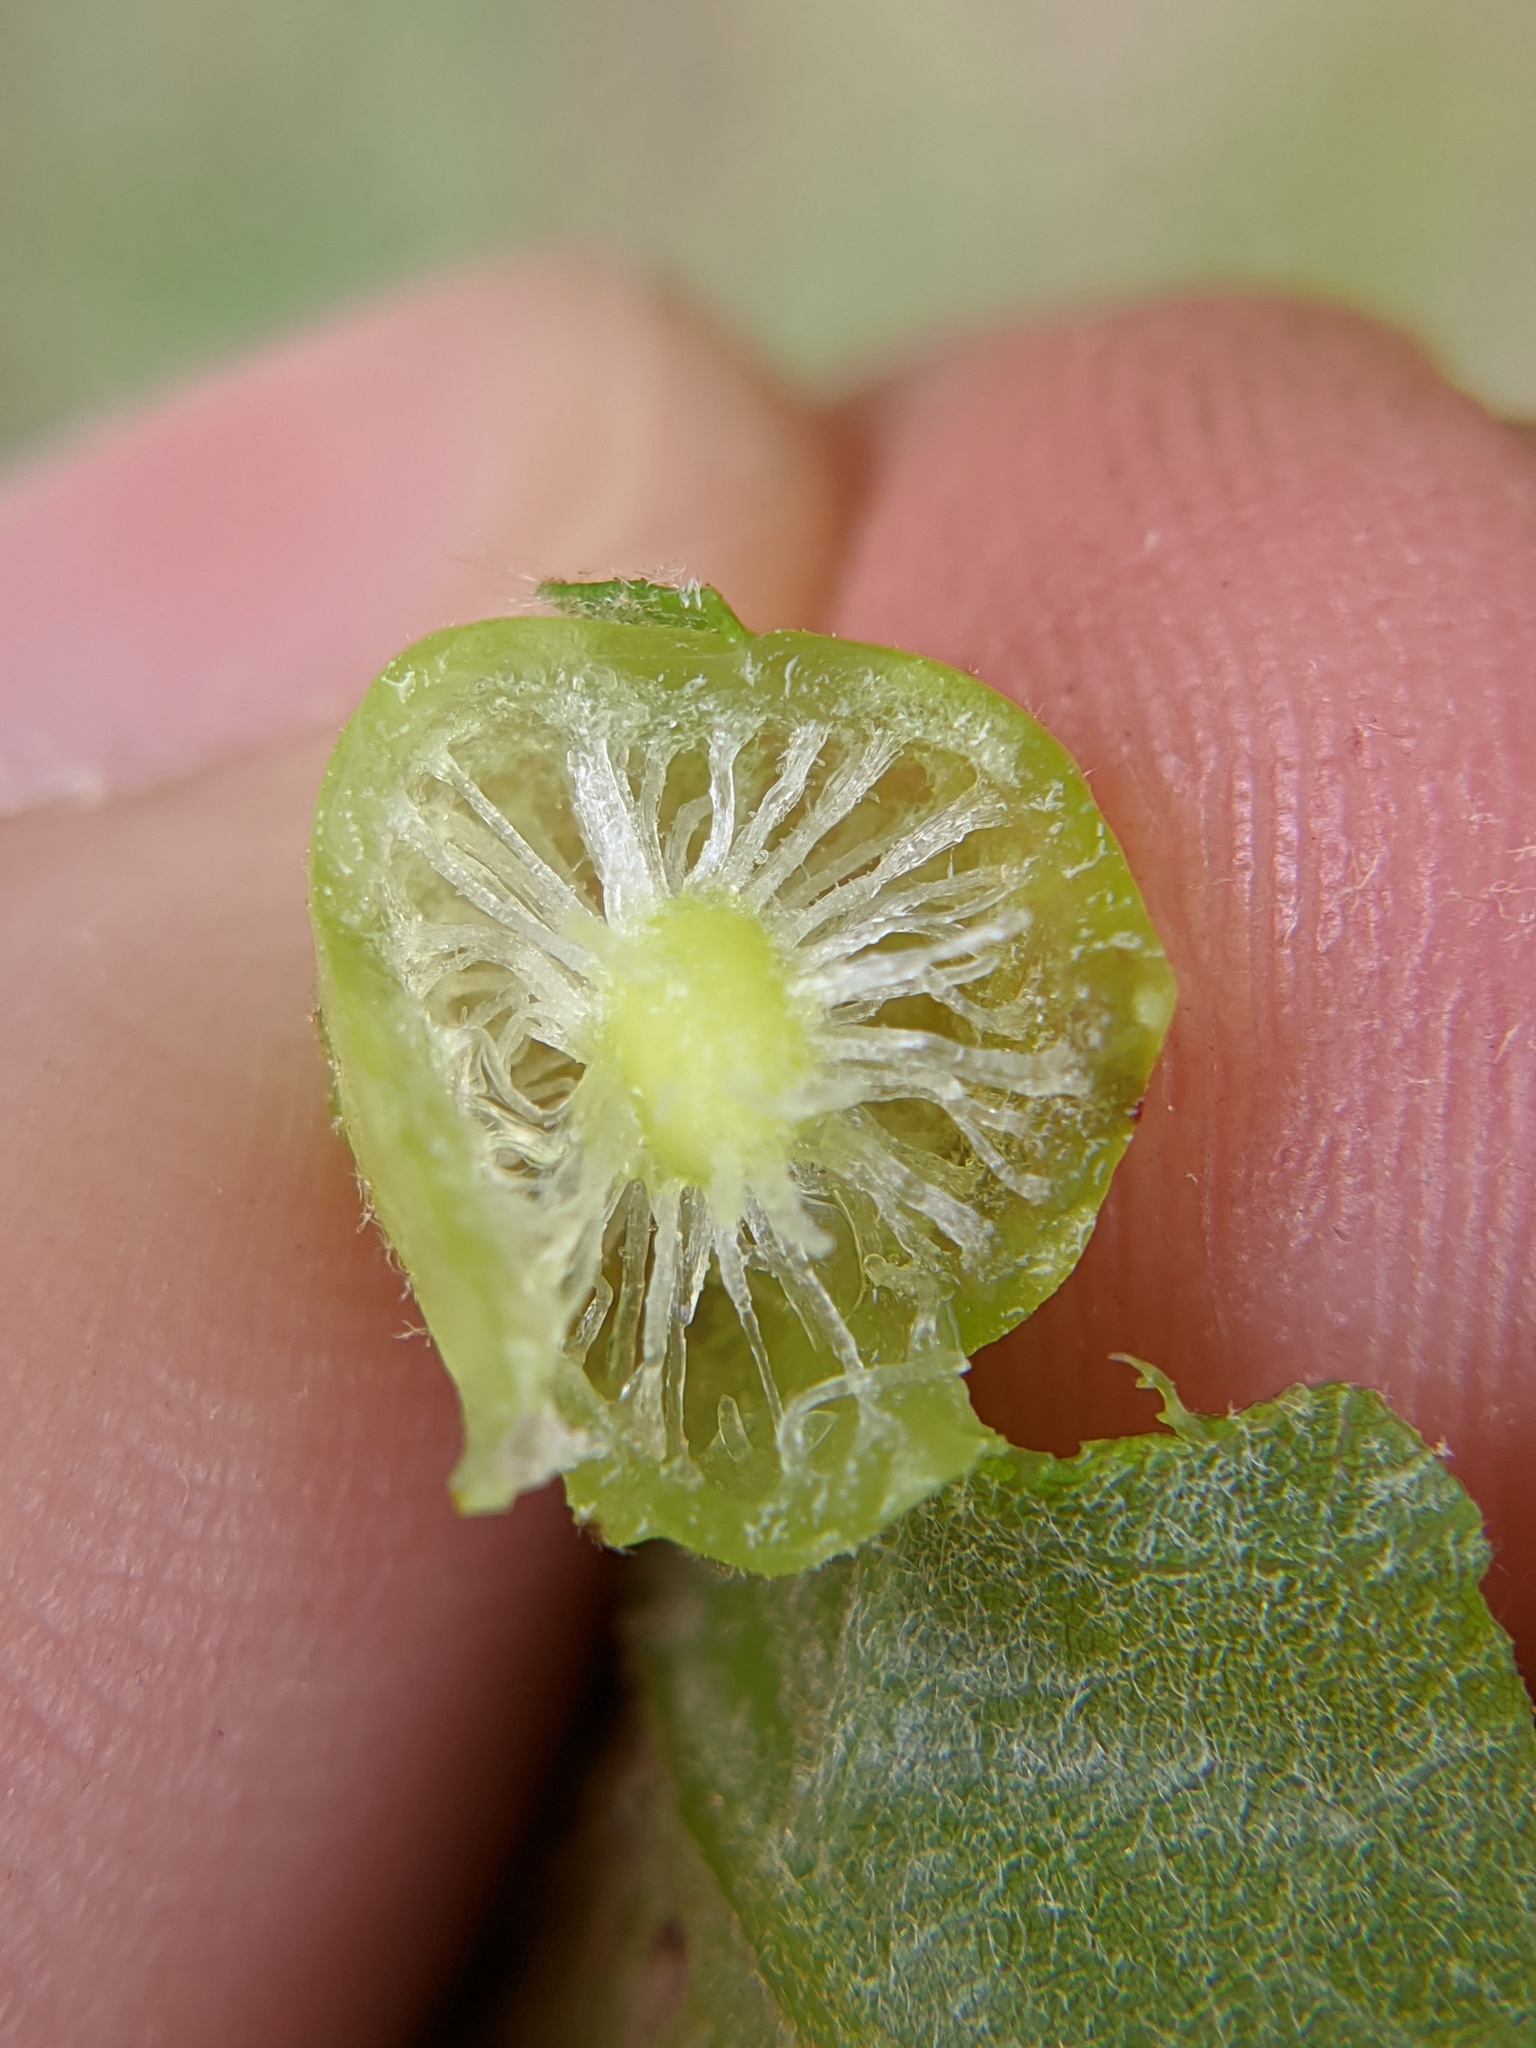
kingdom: Animalia
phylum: Arthropoda
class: Insecta
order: Hymenoptera
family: Cynipidae
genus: Amphibolips
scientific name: Amphibolips
